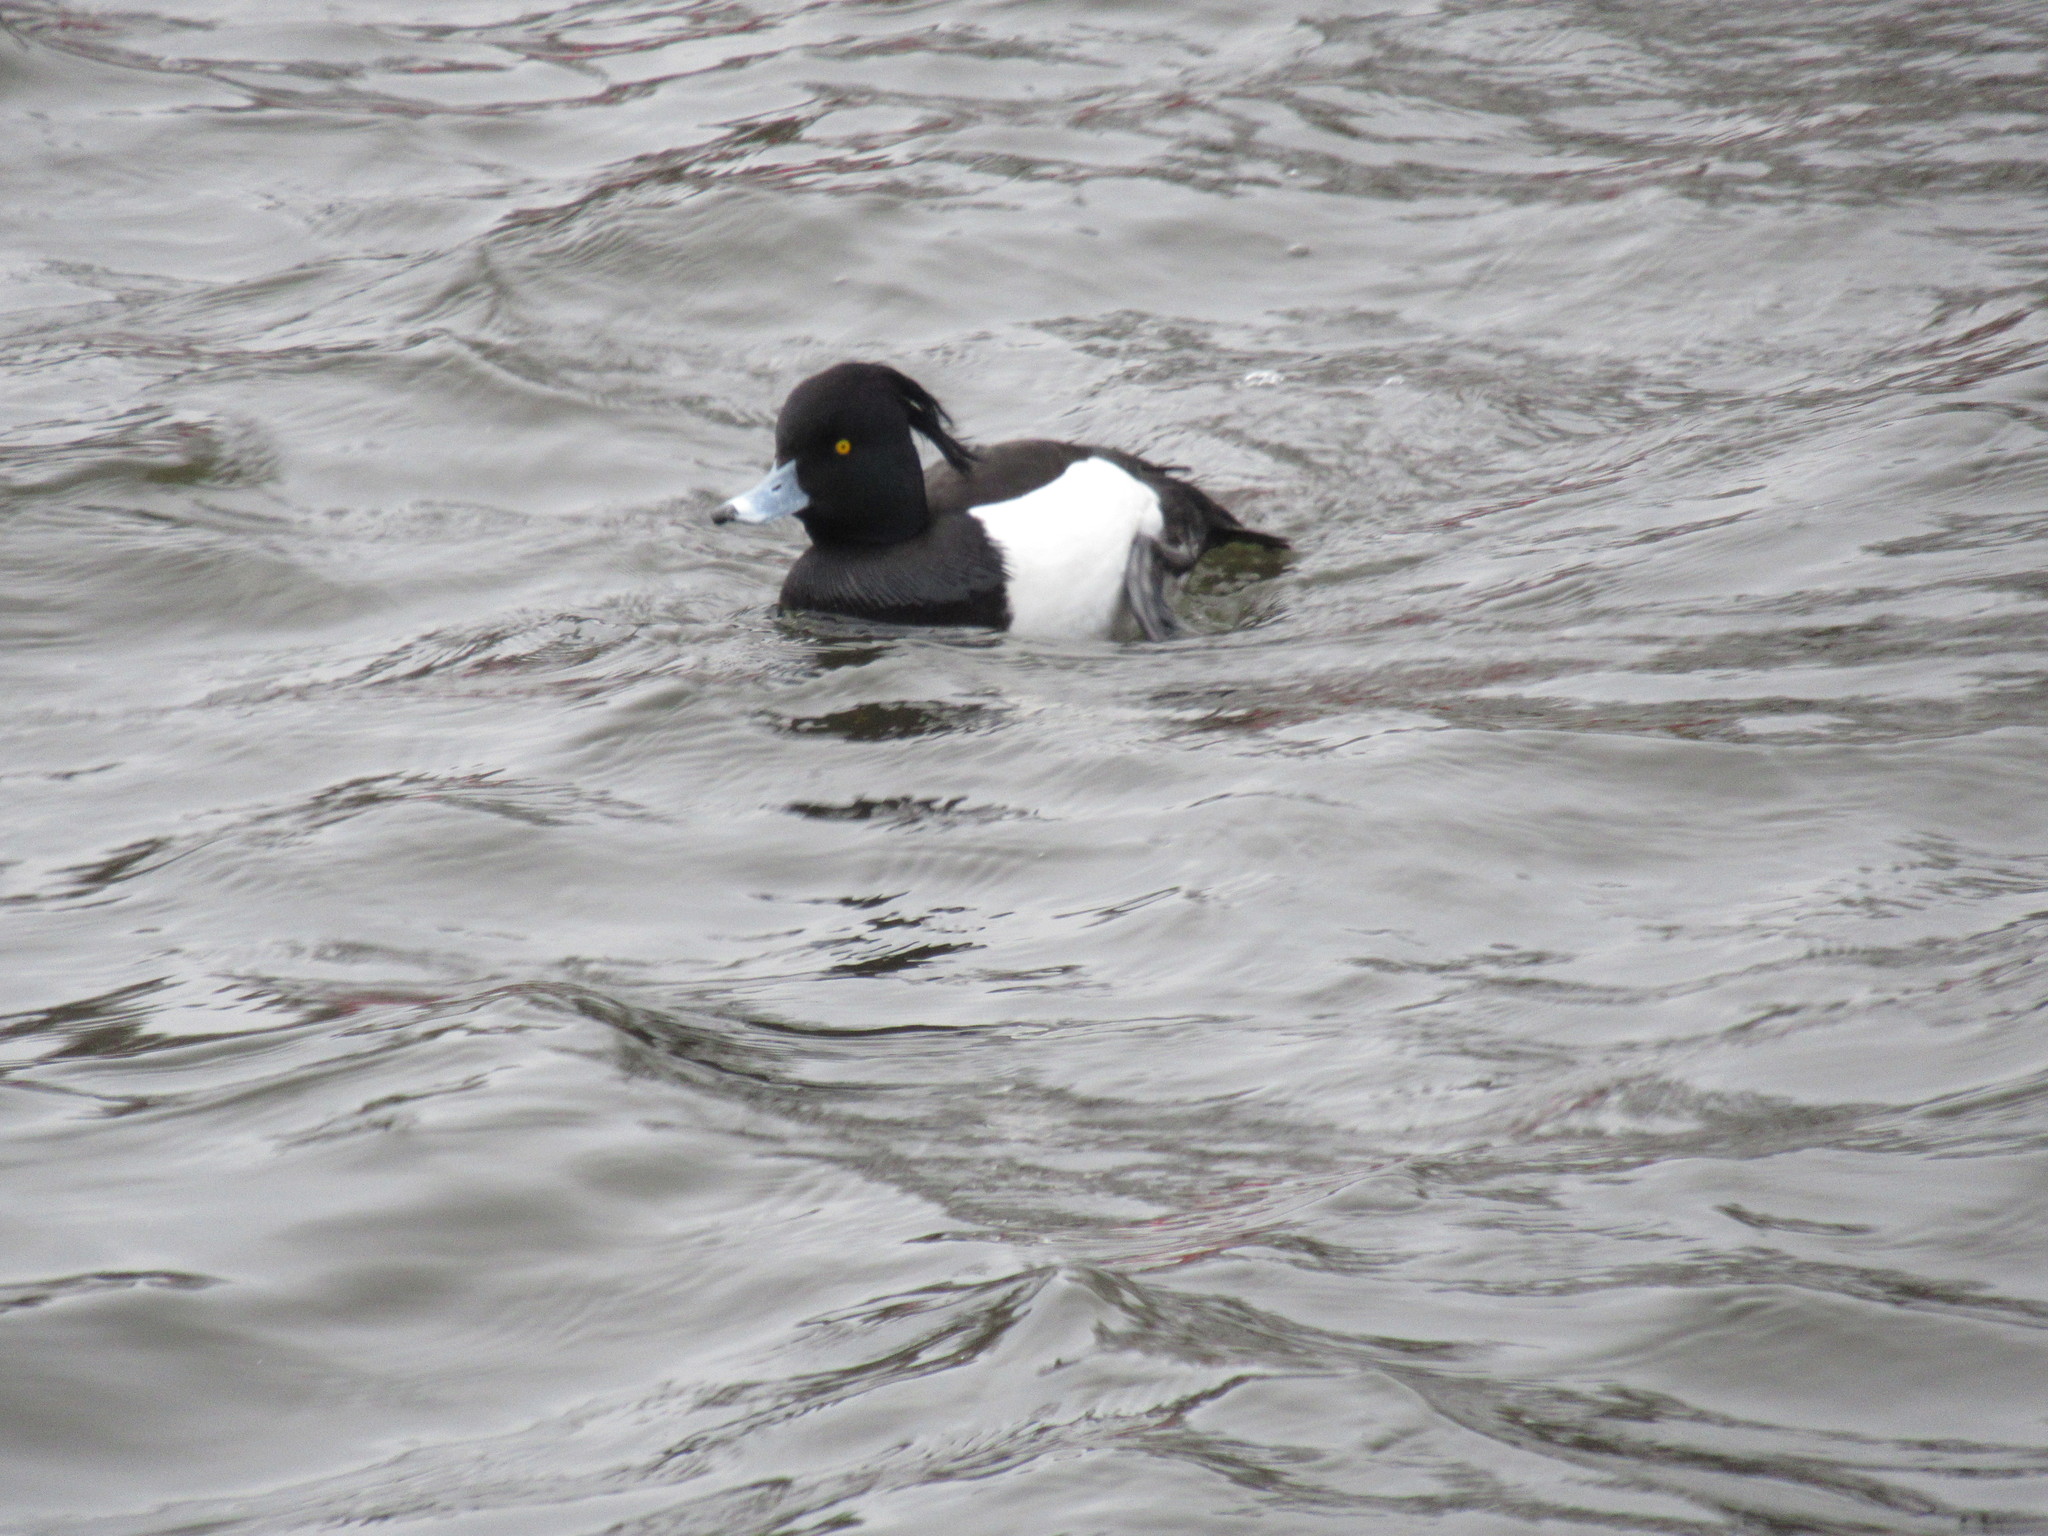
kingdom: Animalia
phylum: Chordata
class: Aves
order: Anseriformes
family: Anatidae
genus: Aythya
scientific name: Aythya fuligula
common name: Tufted duck
